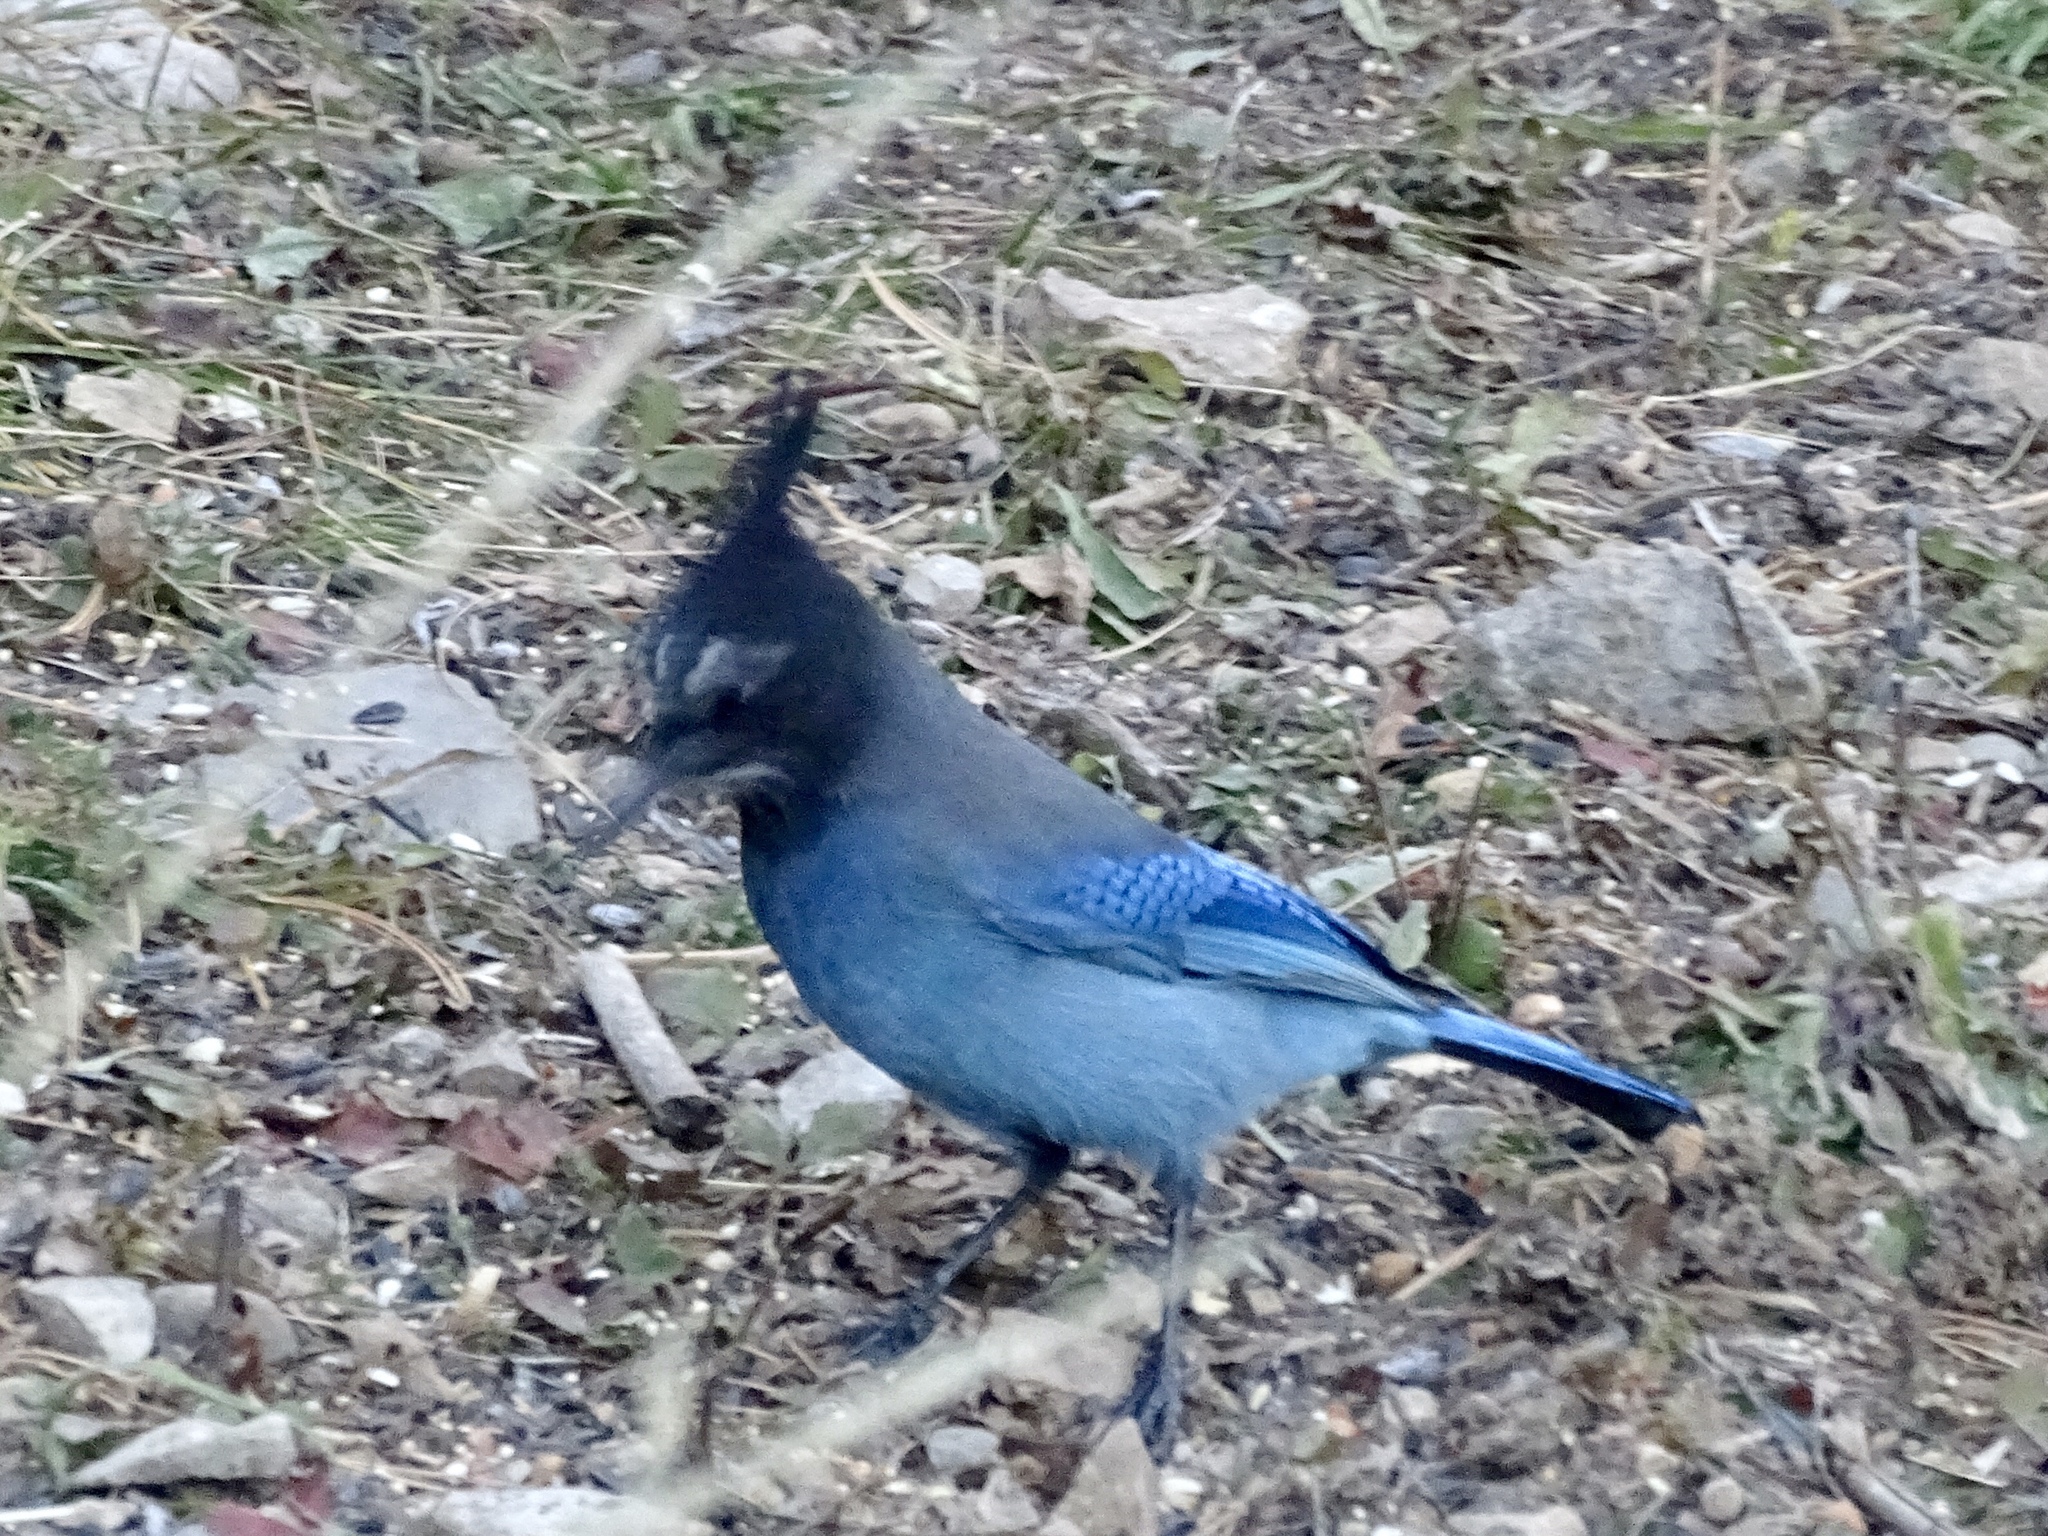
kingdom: Animalia
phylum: Chordata
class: Aves
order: Passeriformes
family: Corvidae
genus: Cyanocitta
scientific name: Cyanocitta stelleri
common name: Steller's jay
